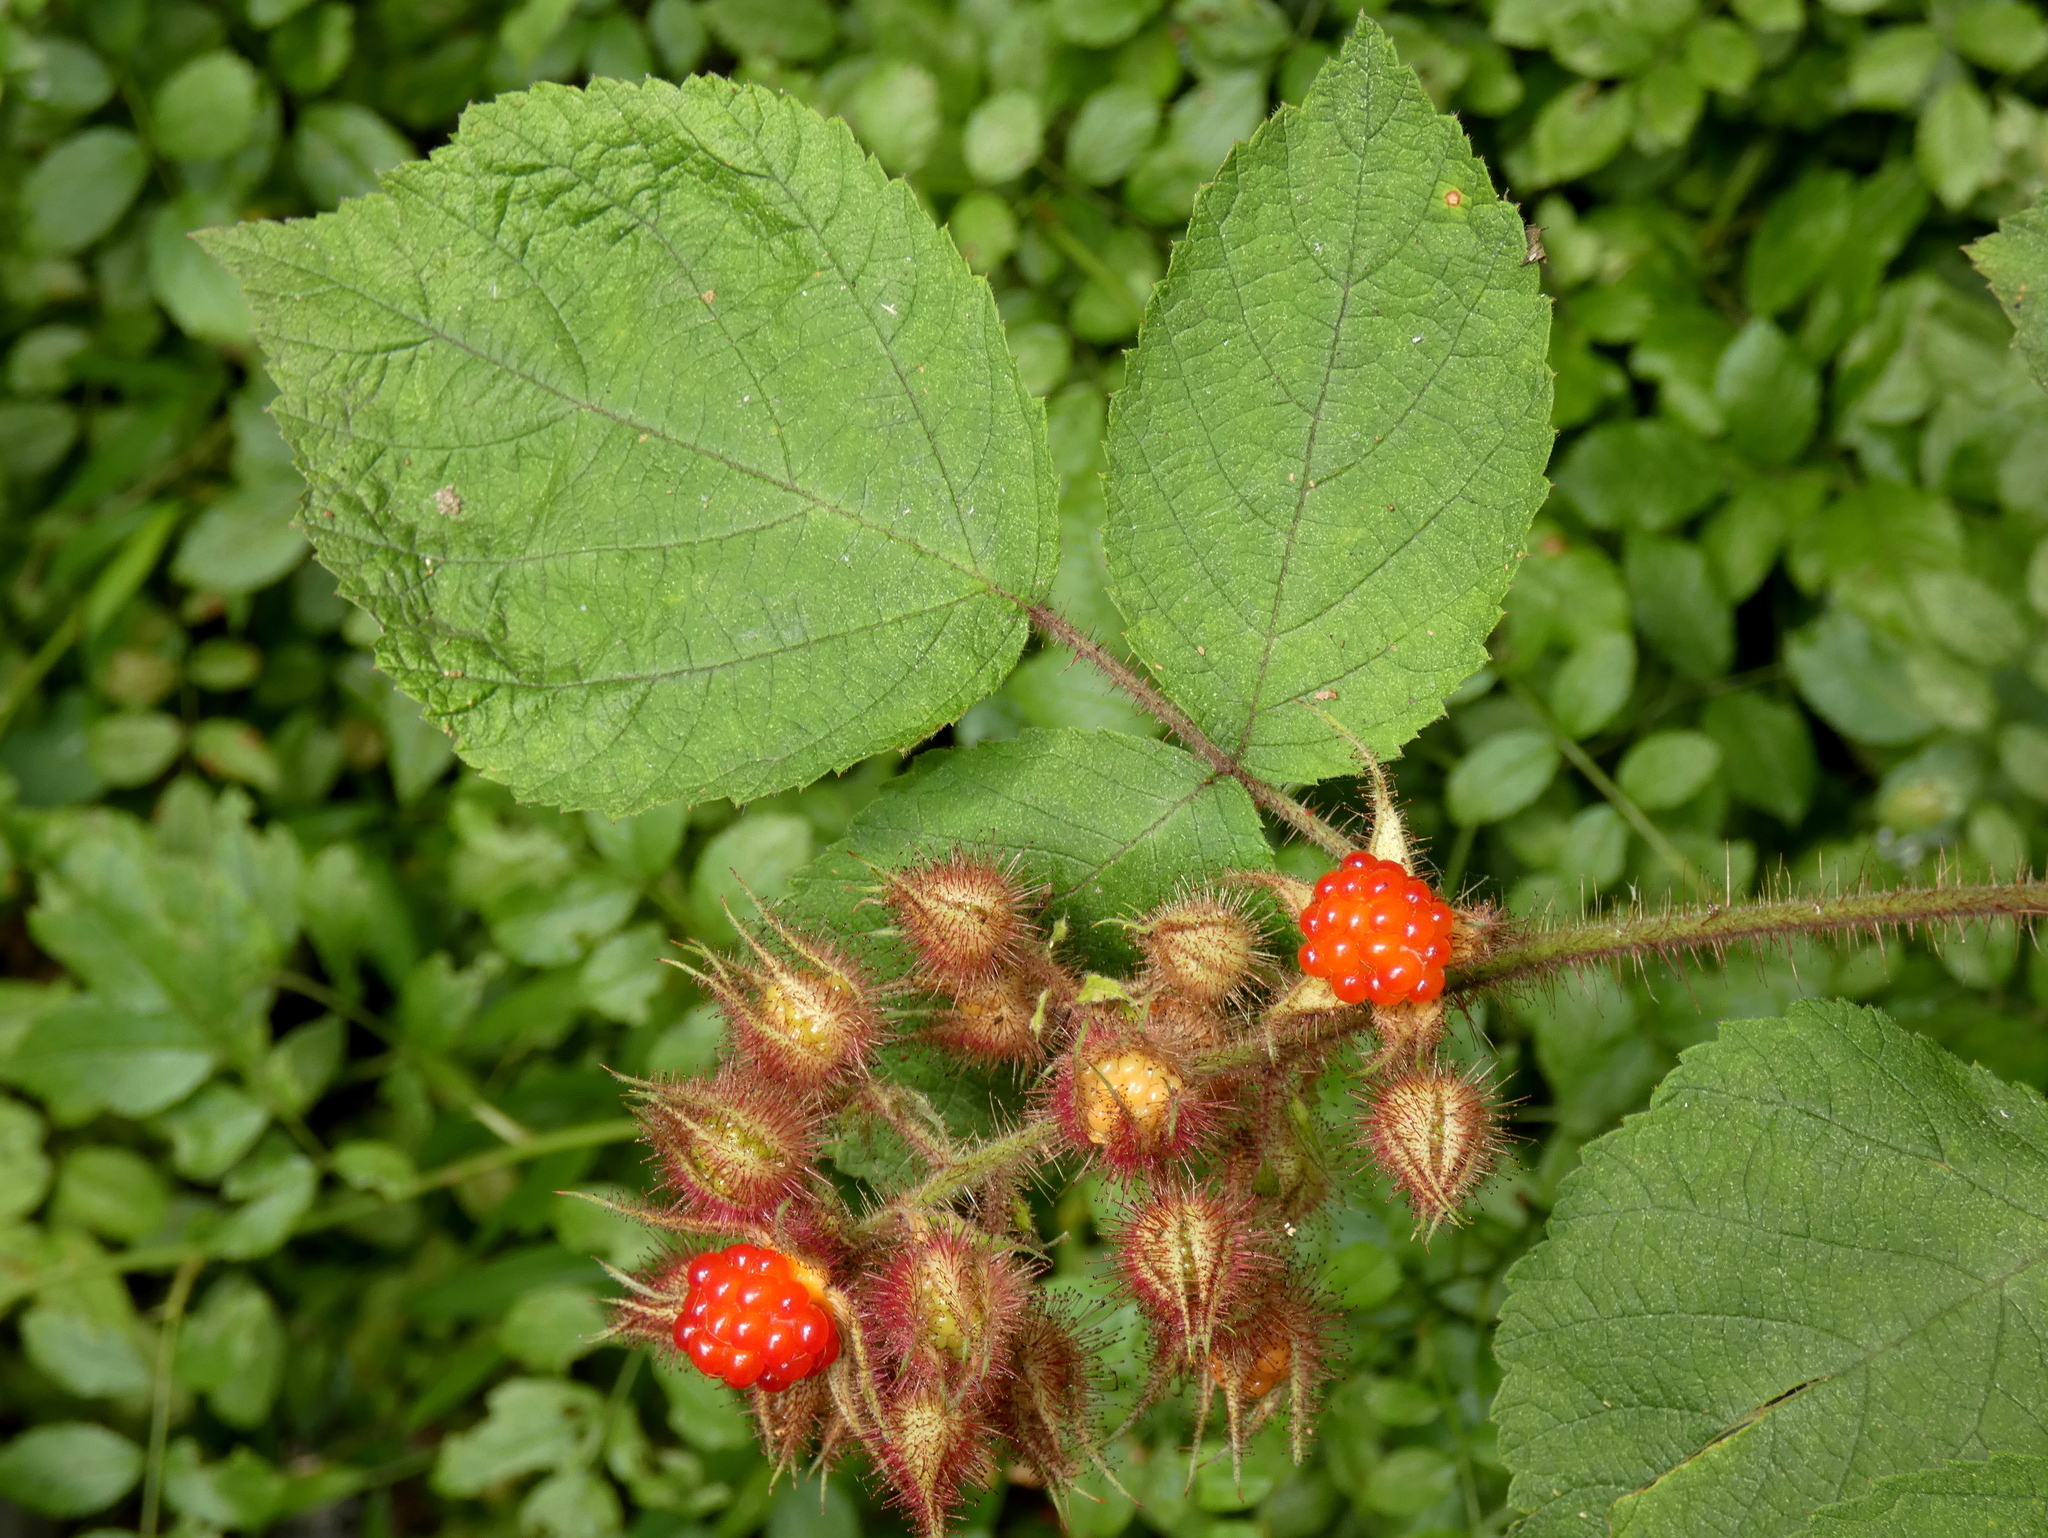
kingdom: Plantae
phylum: Tracheophyta
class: Magnoliopsida
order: Rosales
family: Rosaceae
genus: Rubus
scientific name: Rubus phoenicolasius
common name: Japanese wineberry
